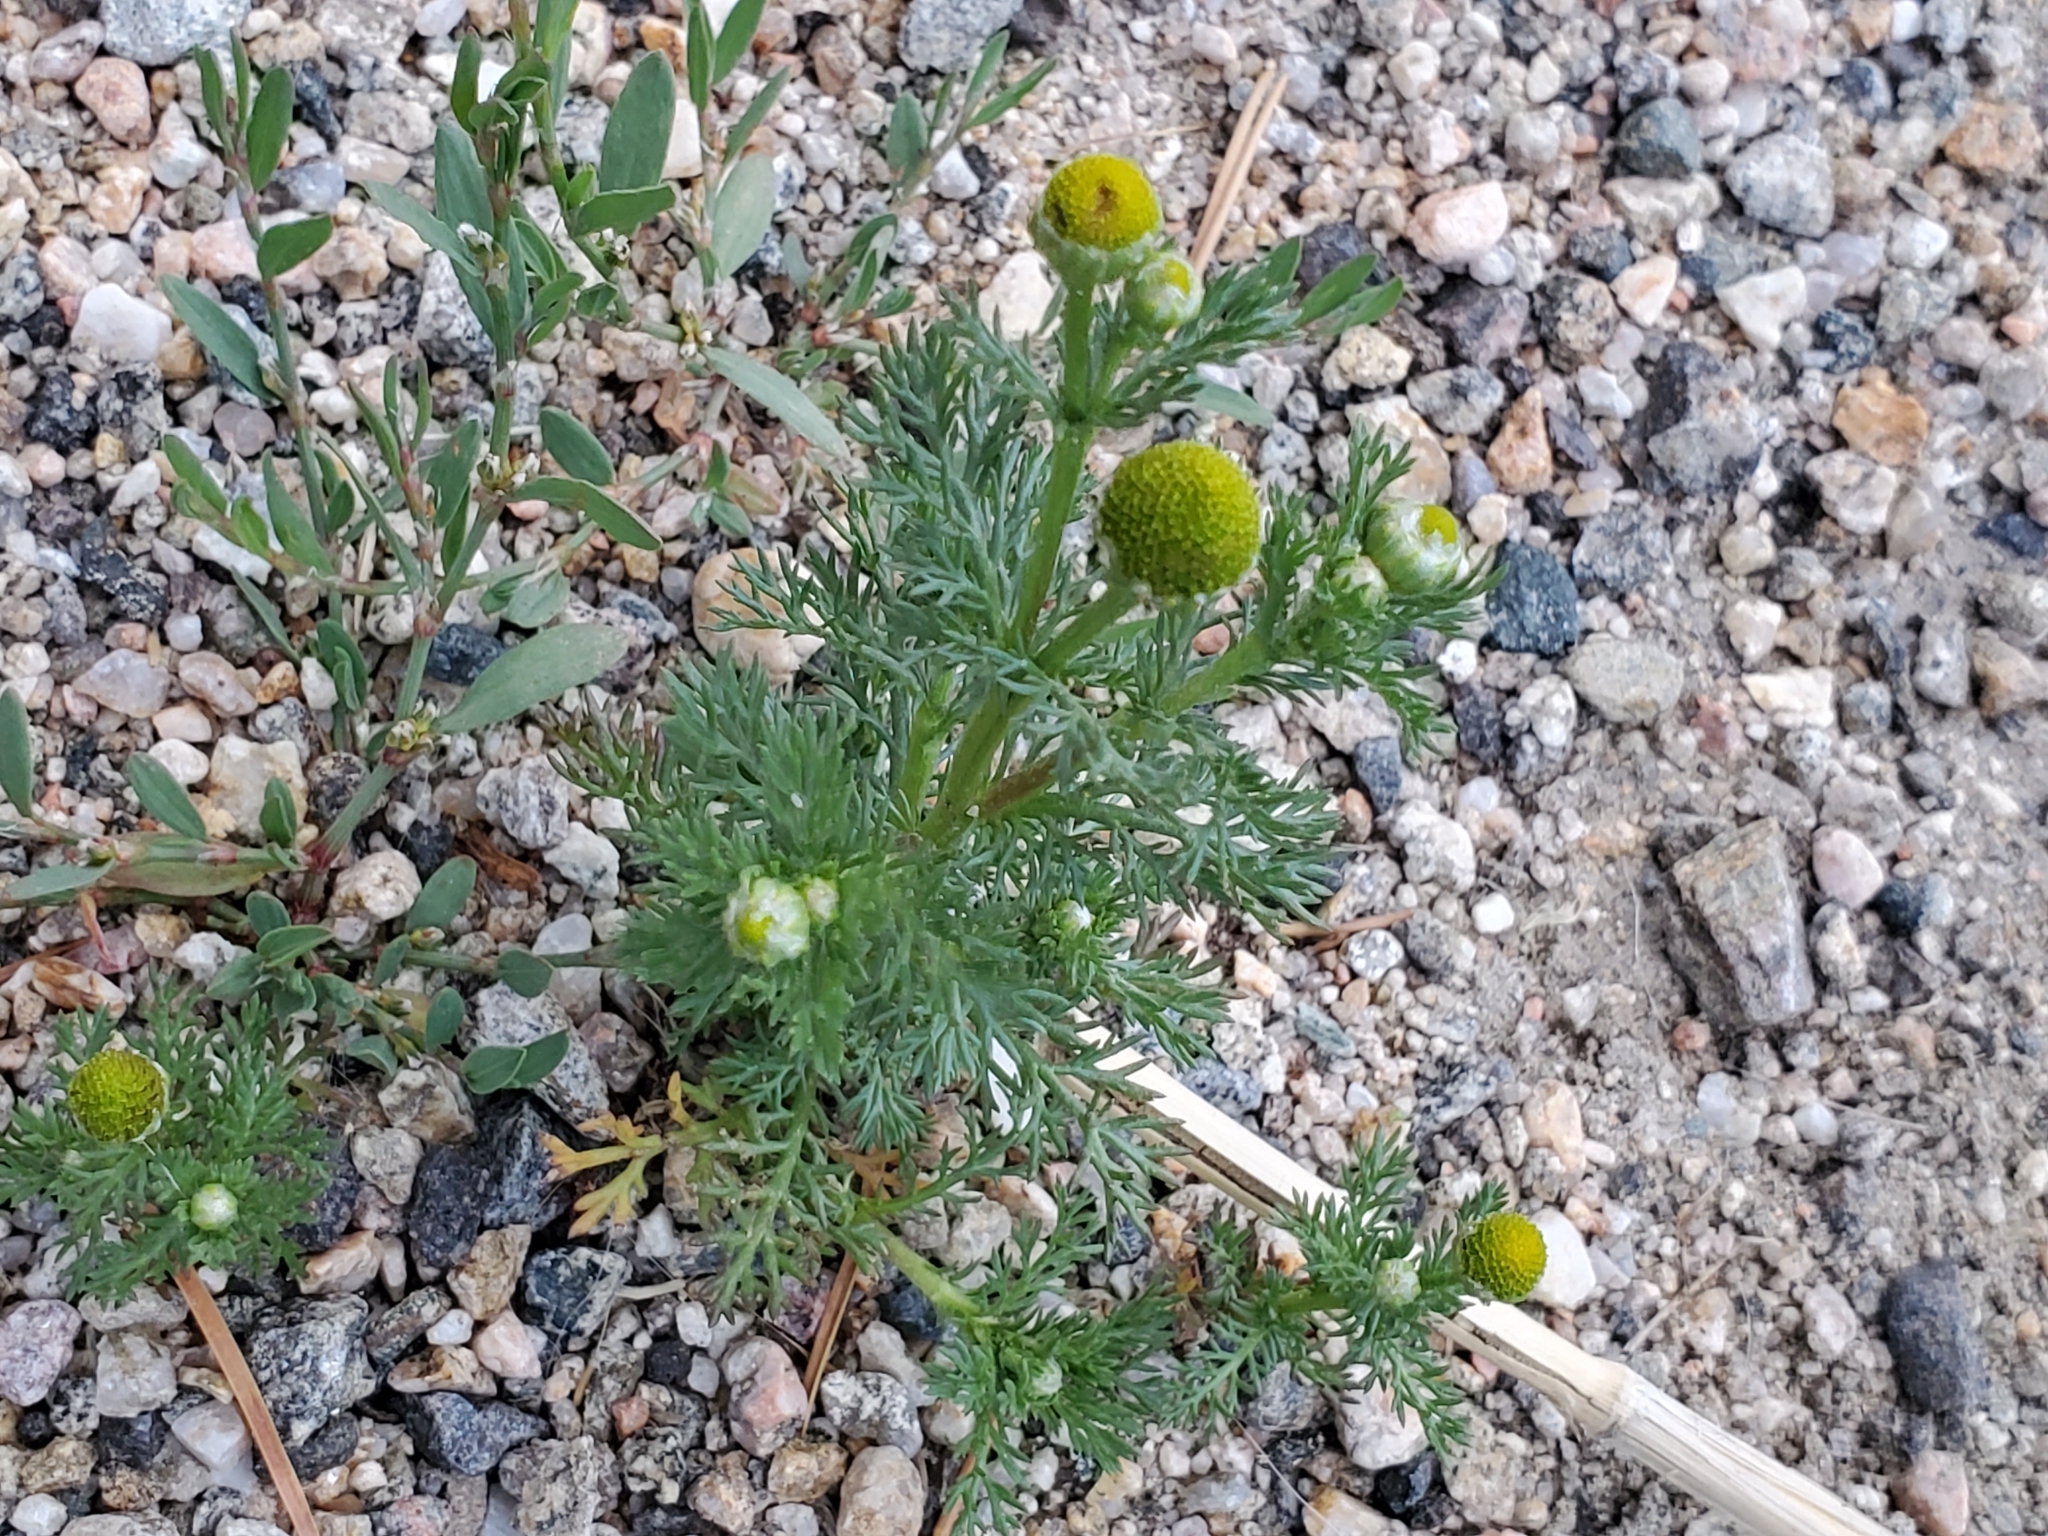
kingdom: Plantae
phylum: Tracheophyta
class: Magnoliopsida
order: Asterales
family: Asteraceae
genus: Matricaria
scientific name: Matricaria discoidea
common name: Disc mayweed
